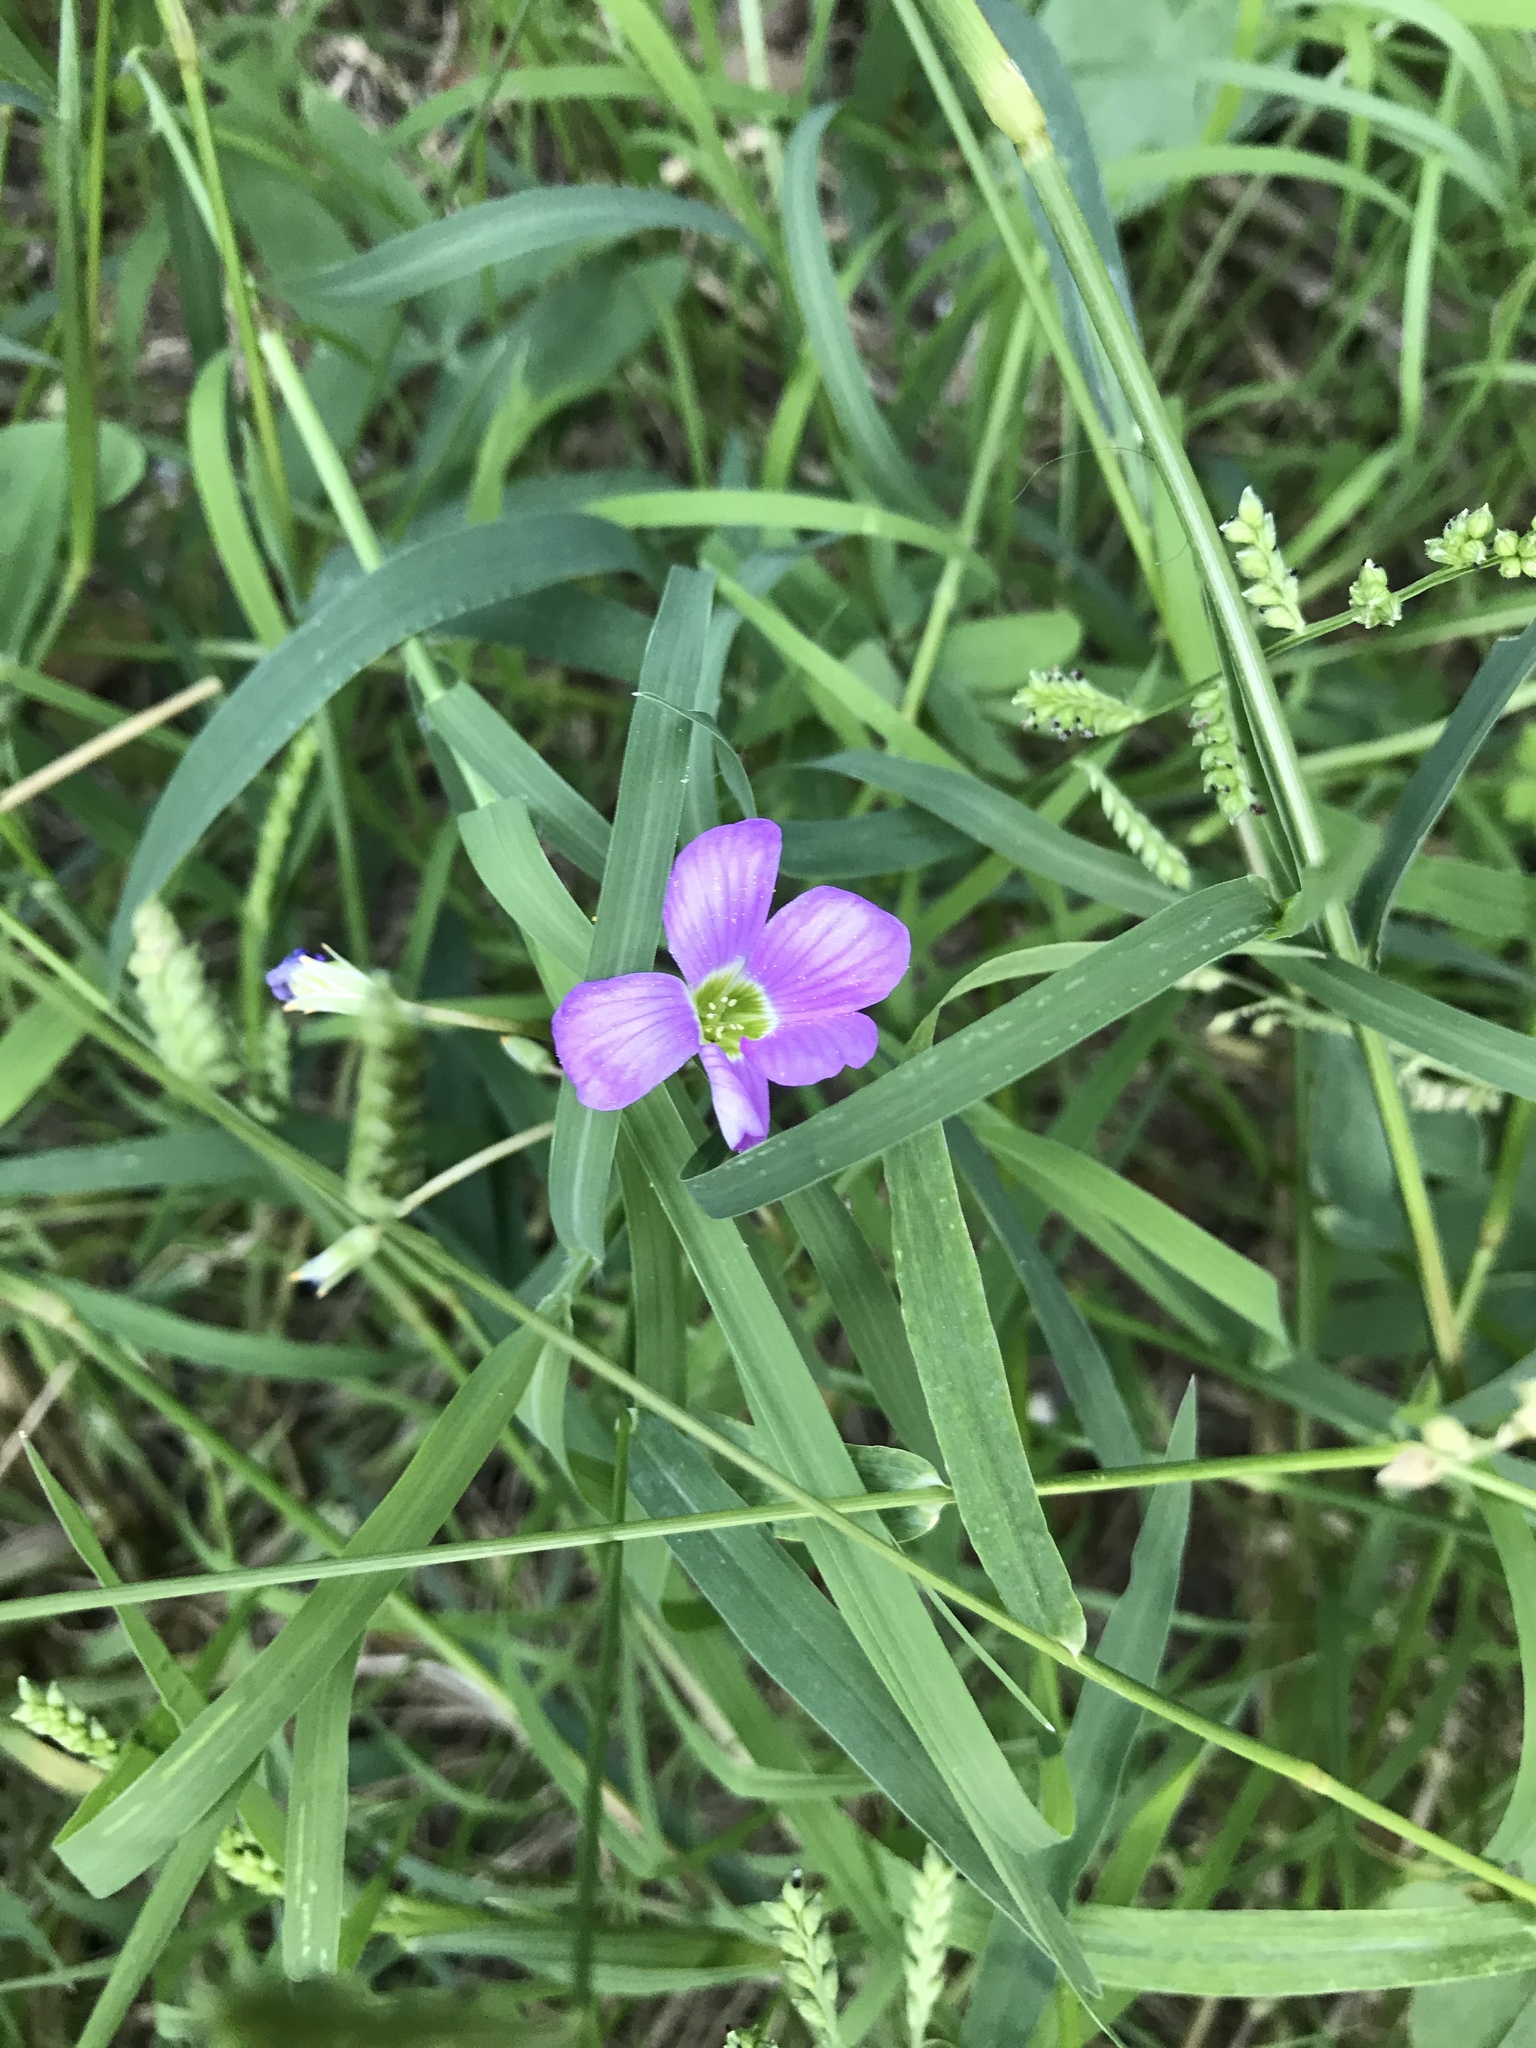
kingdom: Plantae
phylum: Tracheophyta
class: Magnoliopsida
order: Oxalidales
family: Oxalidaceae
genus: Oxalis
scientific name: Oxalis drummondii
